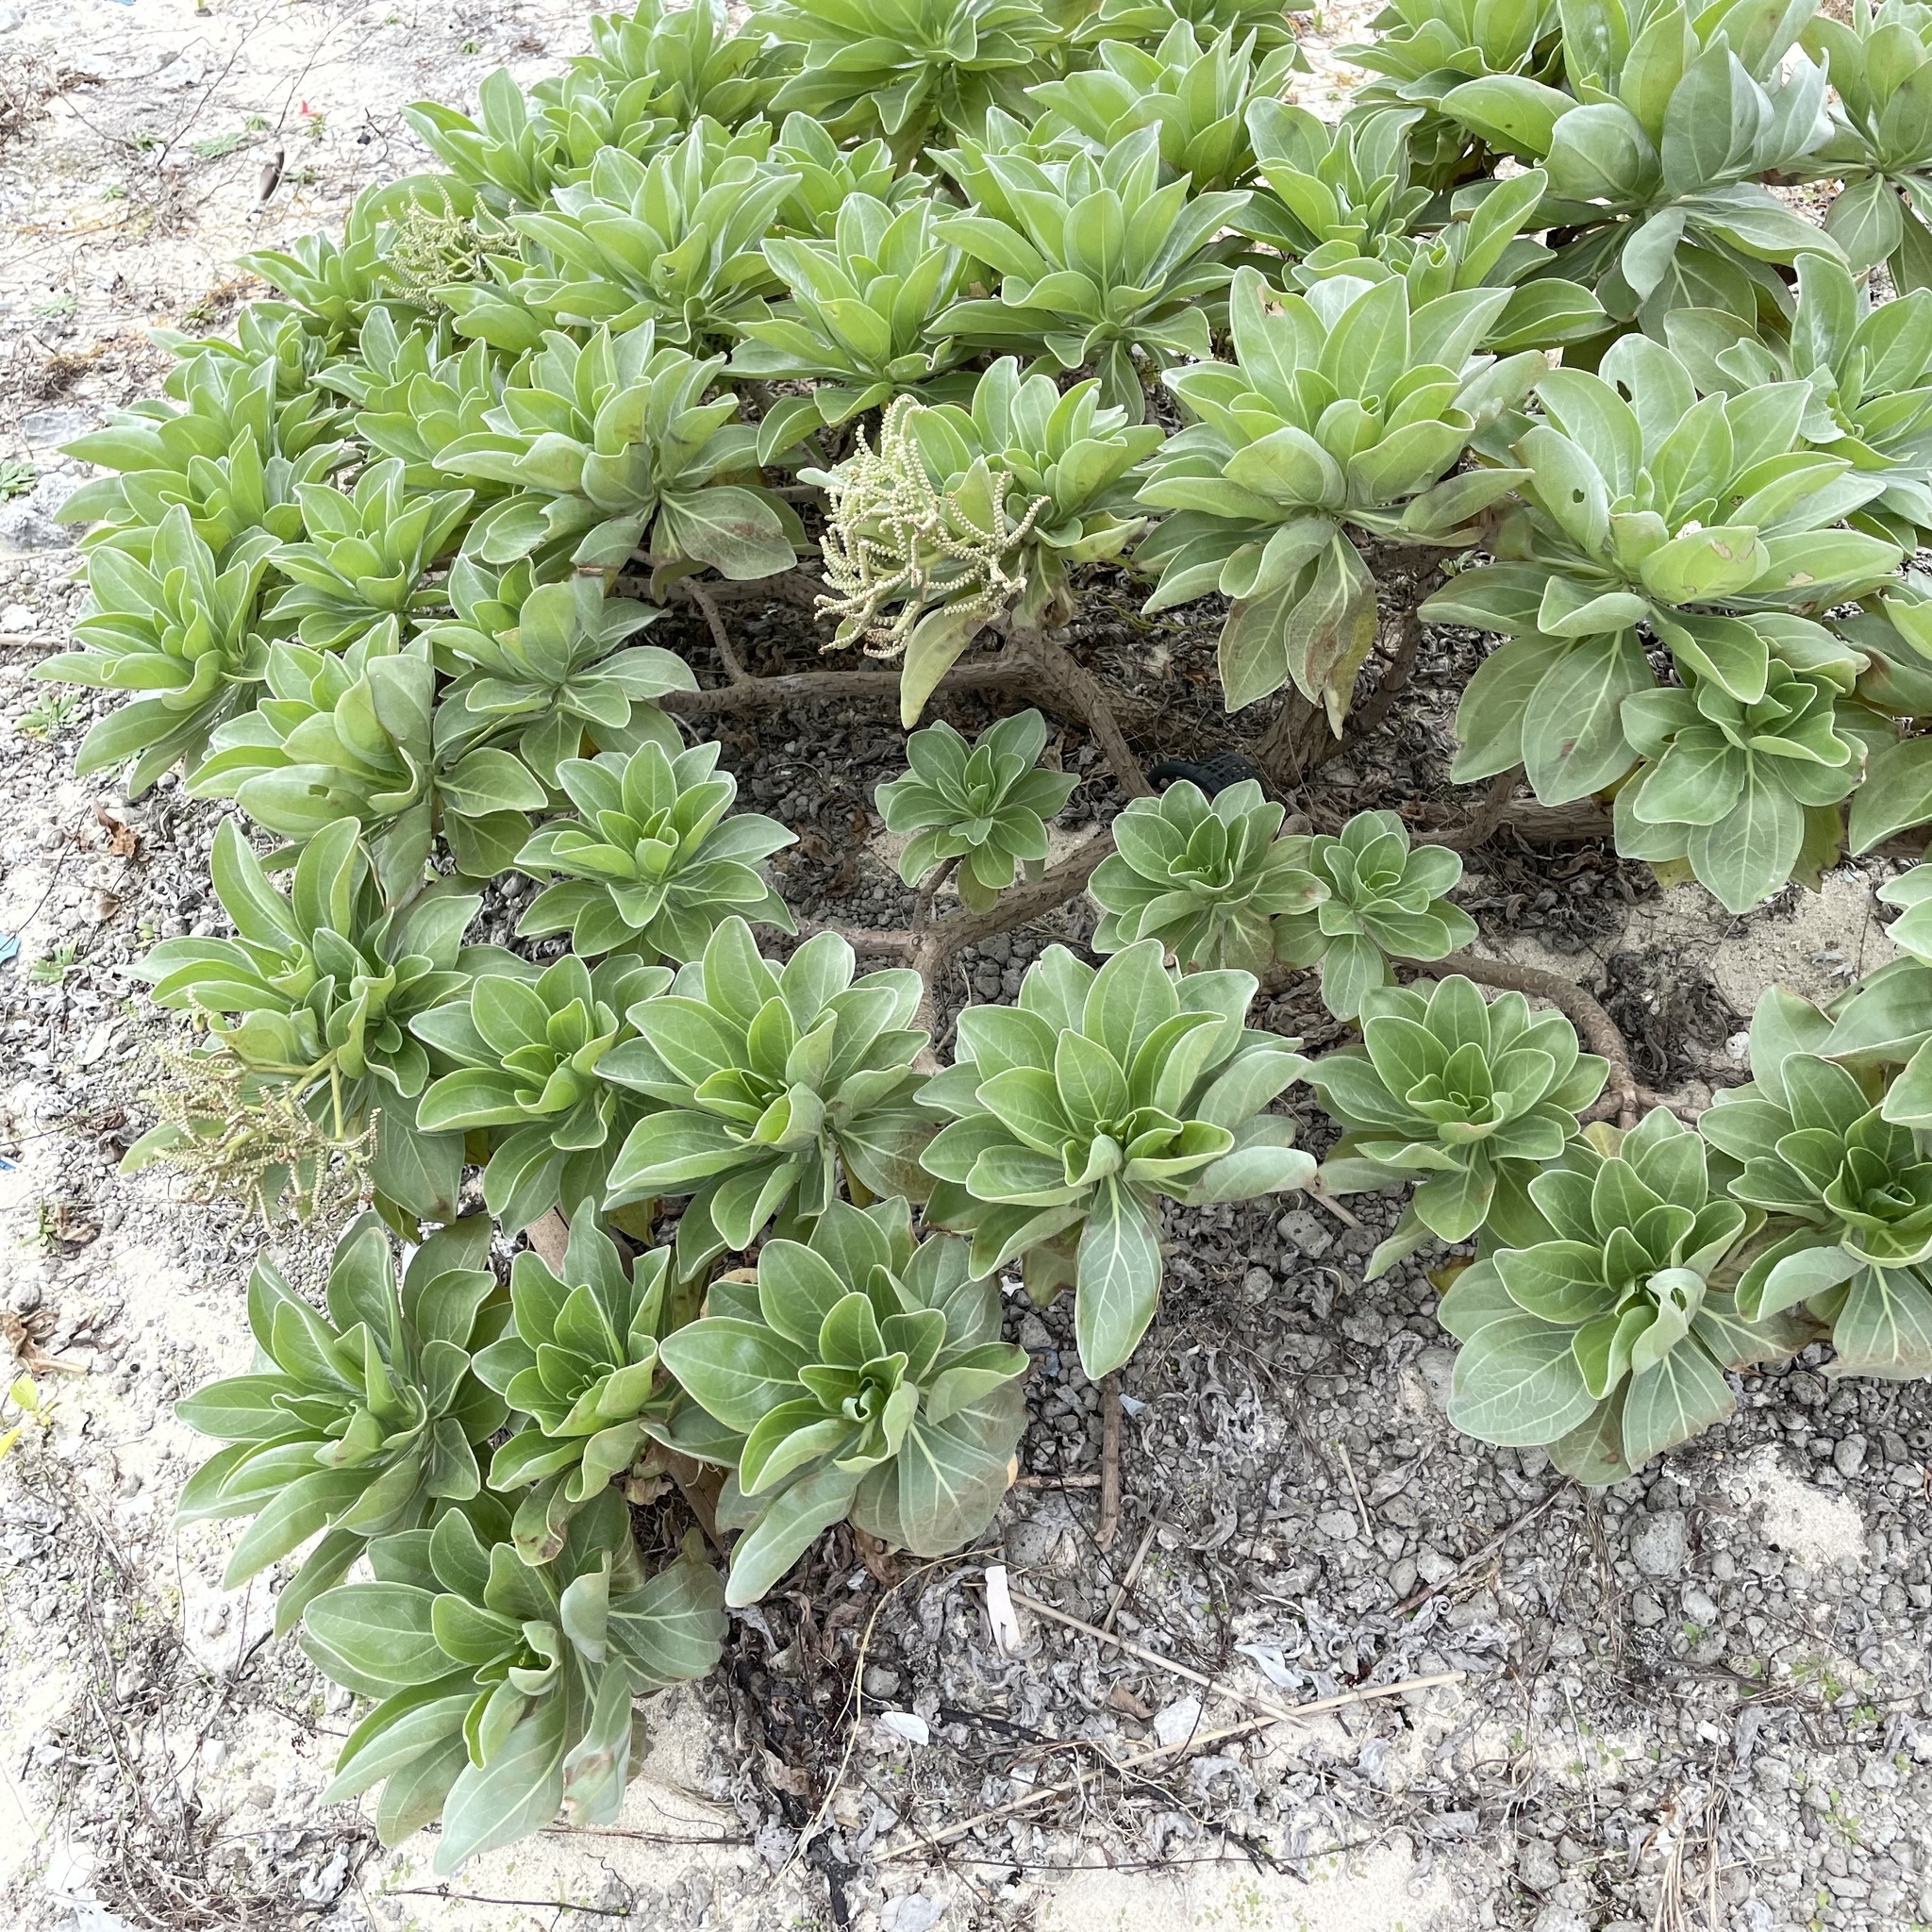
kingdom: Plantae
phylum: Tracheophyta
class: Magnoliopsida
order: Boraginales
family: Heliotropiaceae
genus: Heliotropium
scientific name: Heliotropium velutinum
